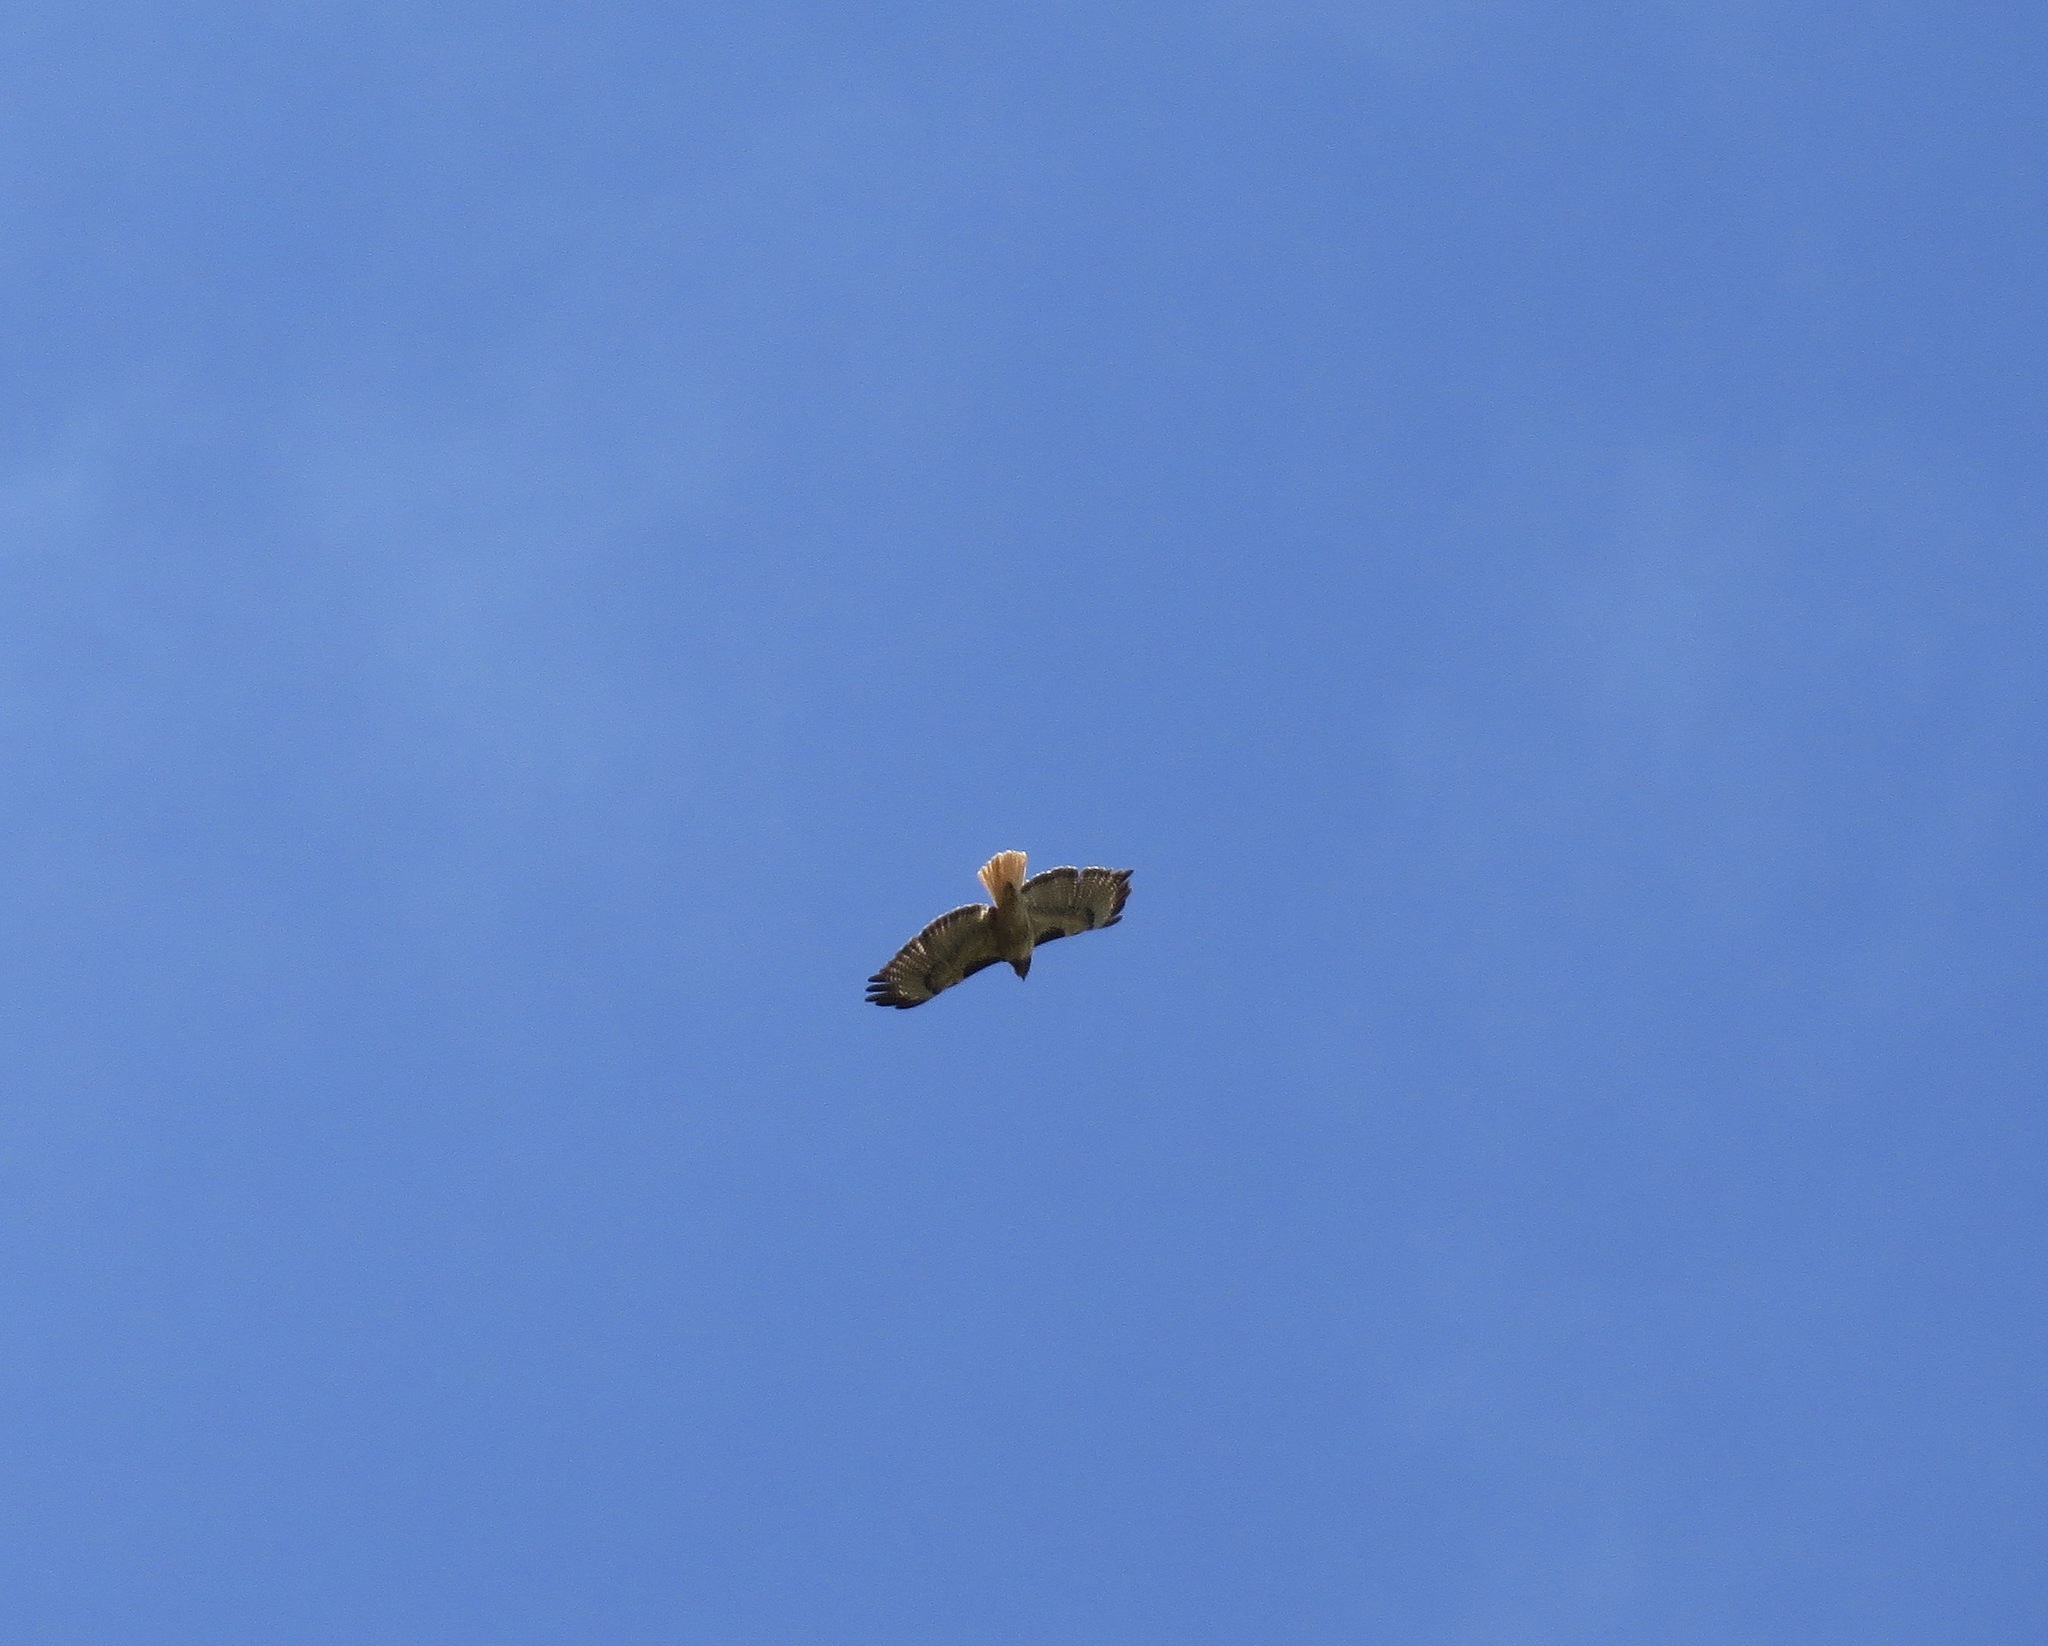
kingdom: Animalia
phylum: Chordata
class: Aves
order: Accipitriformes
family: Accipitridae
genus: Buteo
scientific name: Buteo jamaicensis
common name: Red-tailed hawk
